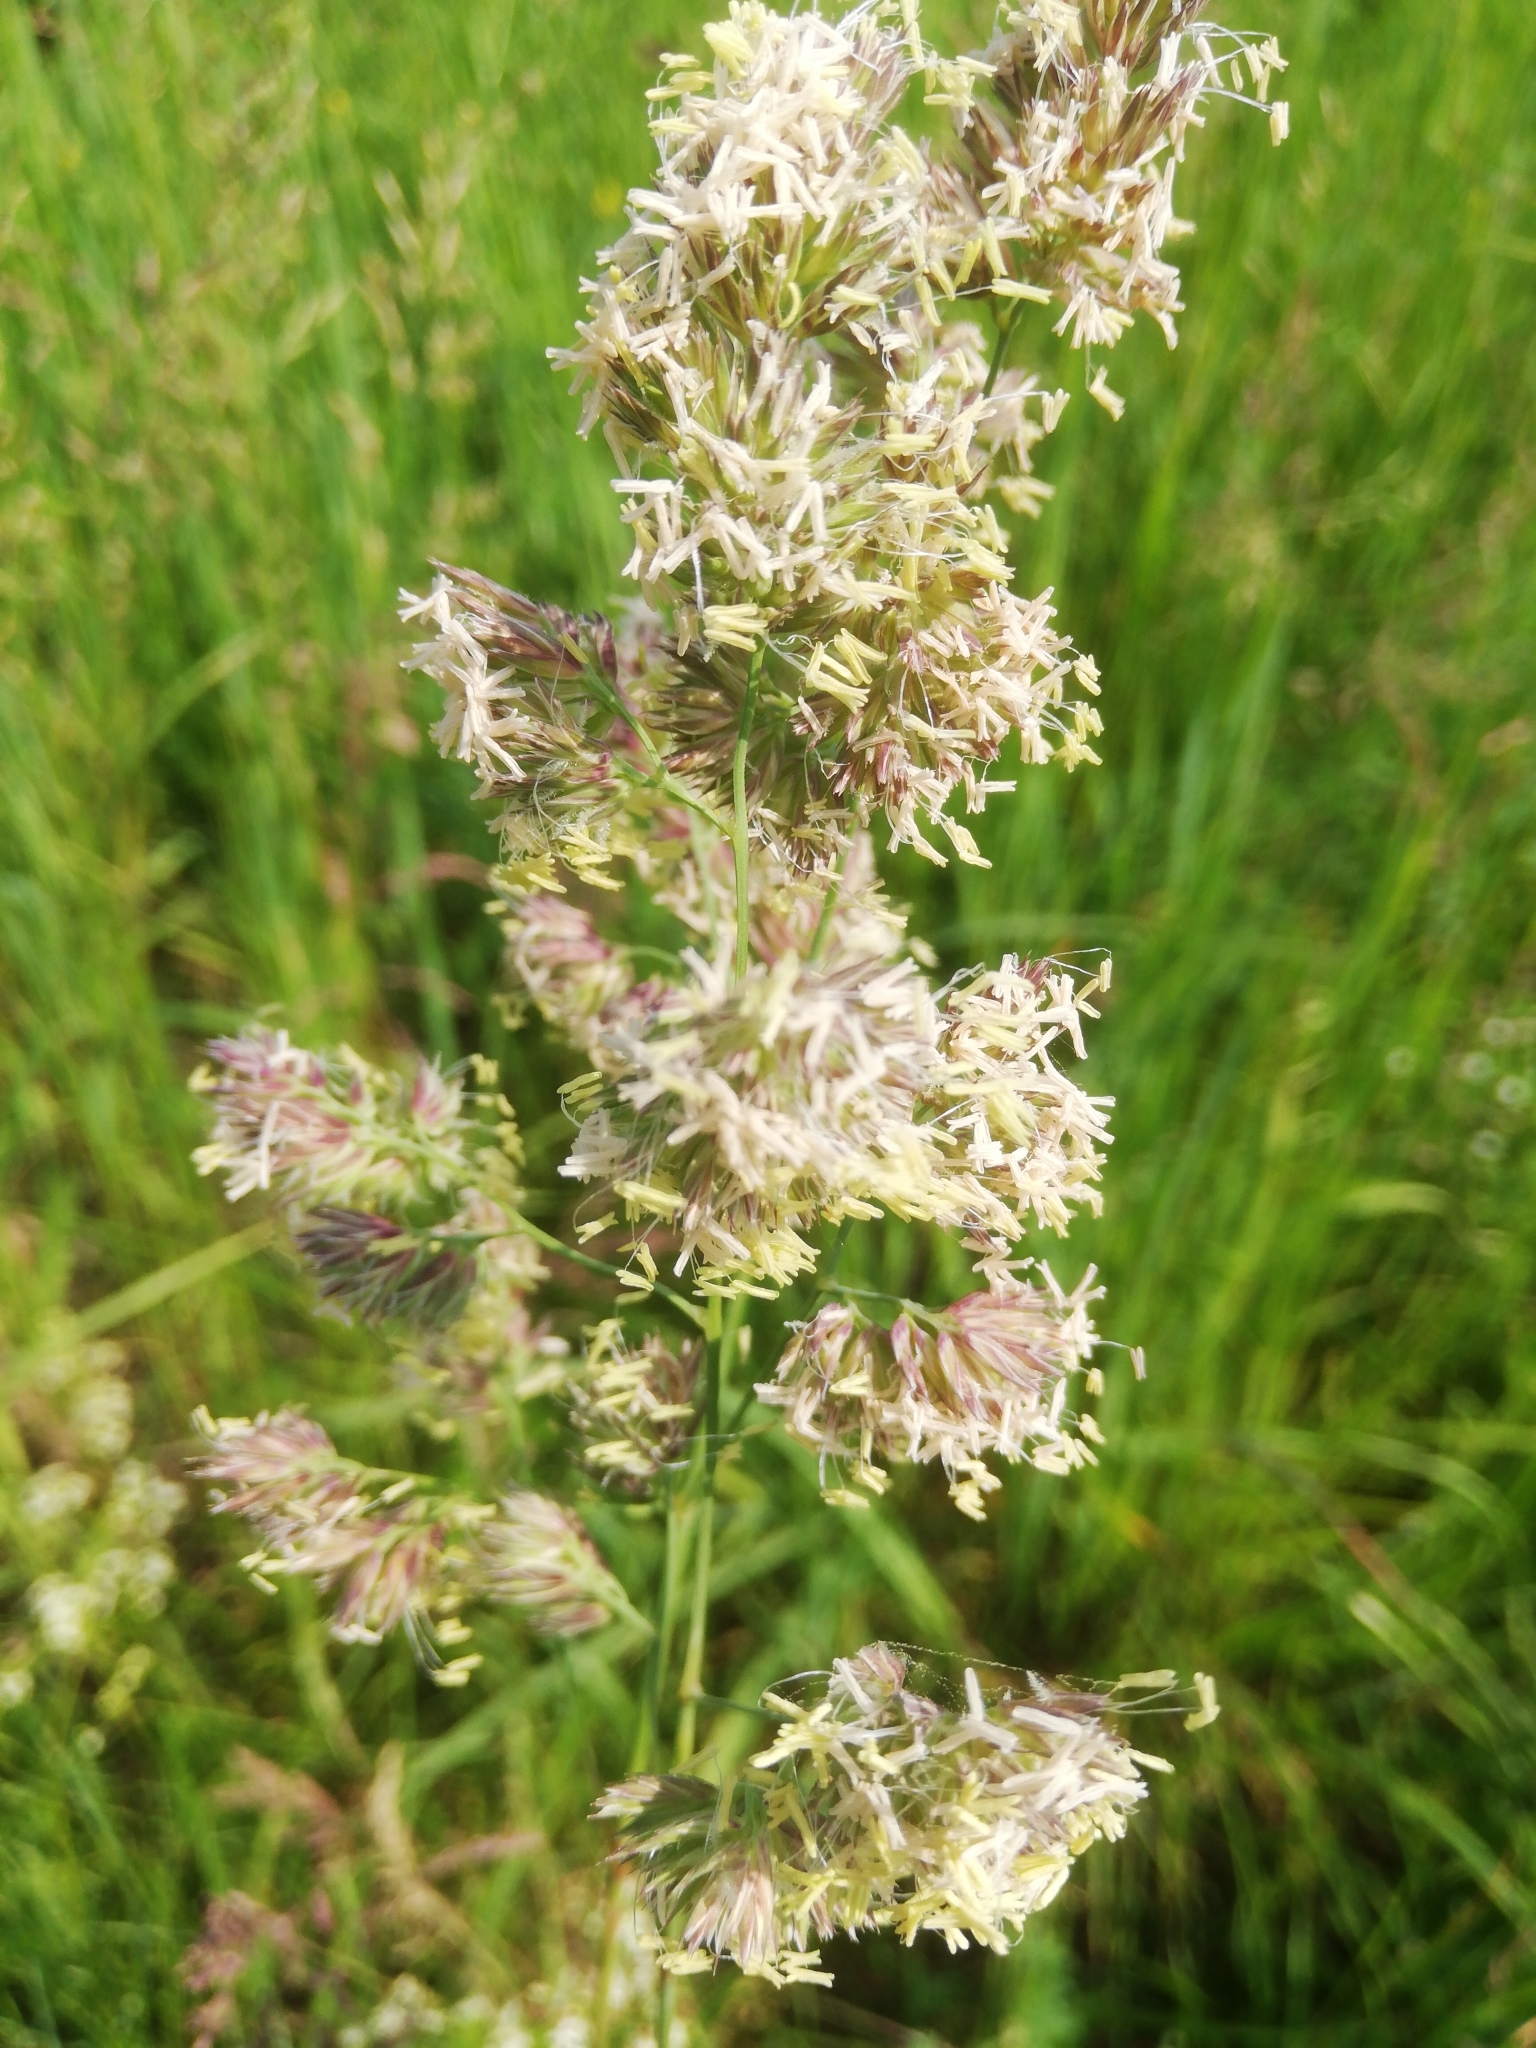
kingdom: Plantae
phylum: Tracheophyta
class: Liliopsida
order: Poales
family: Poaceae
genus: Dactylis
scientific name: Dactylis glomerata
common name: Orchardgrass
